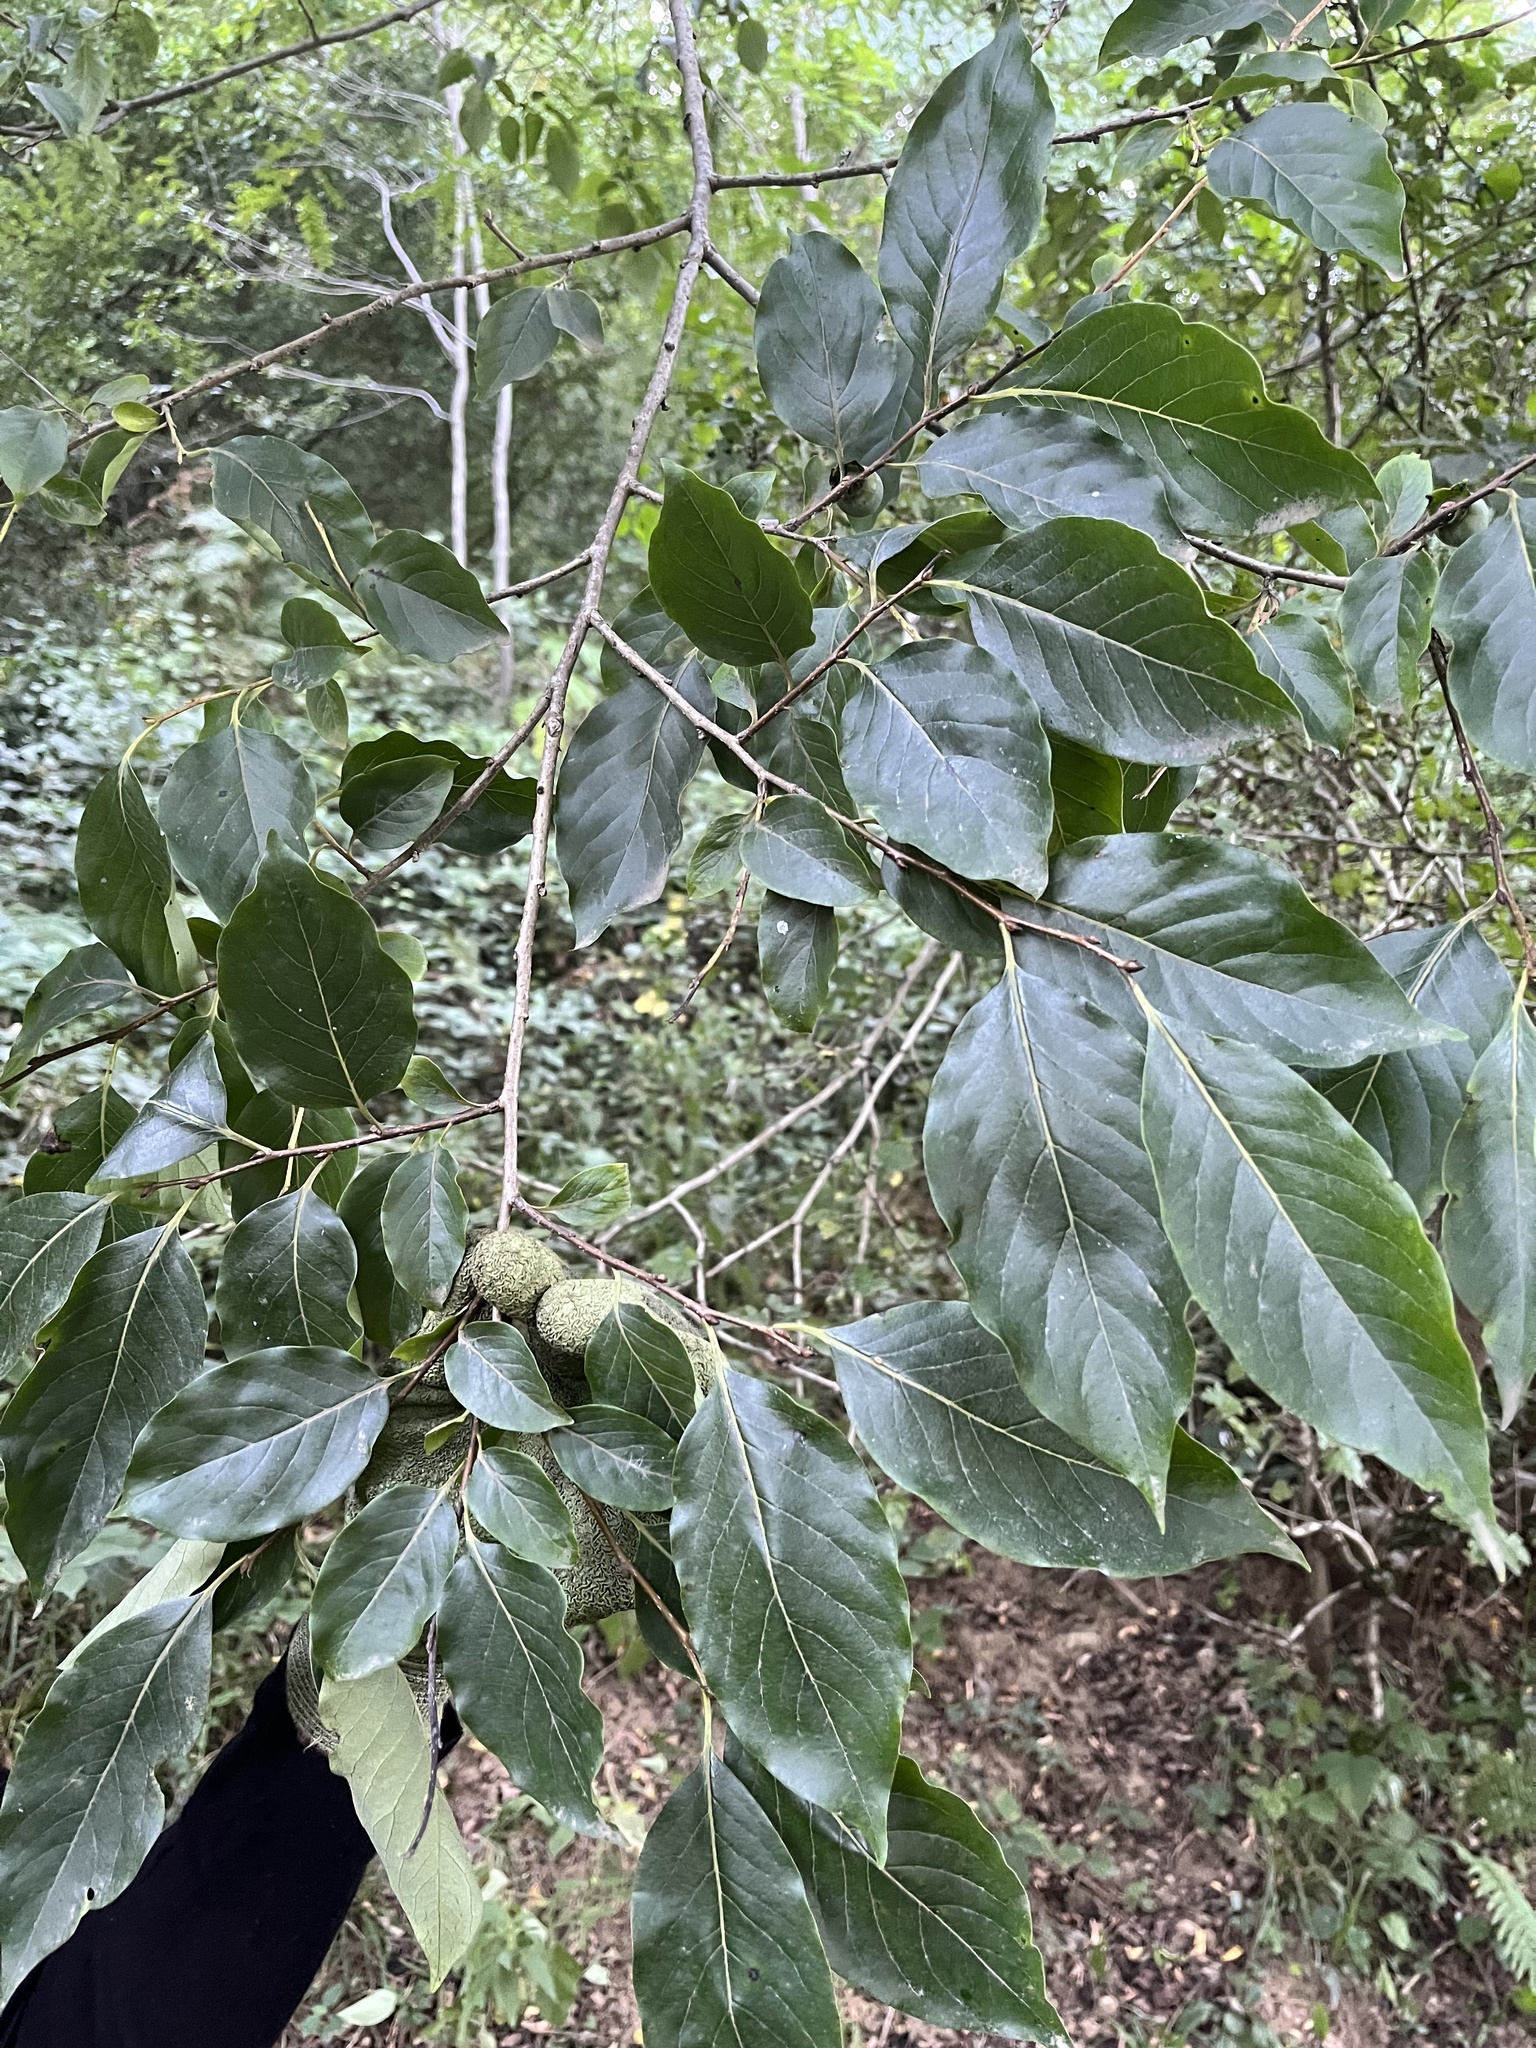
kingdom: Plantae
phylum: Tracheophyta
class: Magnoliopsida
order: Ericales
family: Ebenaceae
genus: Diospyros
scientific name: Diospyros lotus
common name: Date-plum
